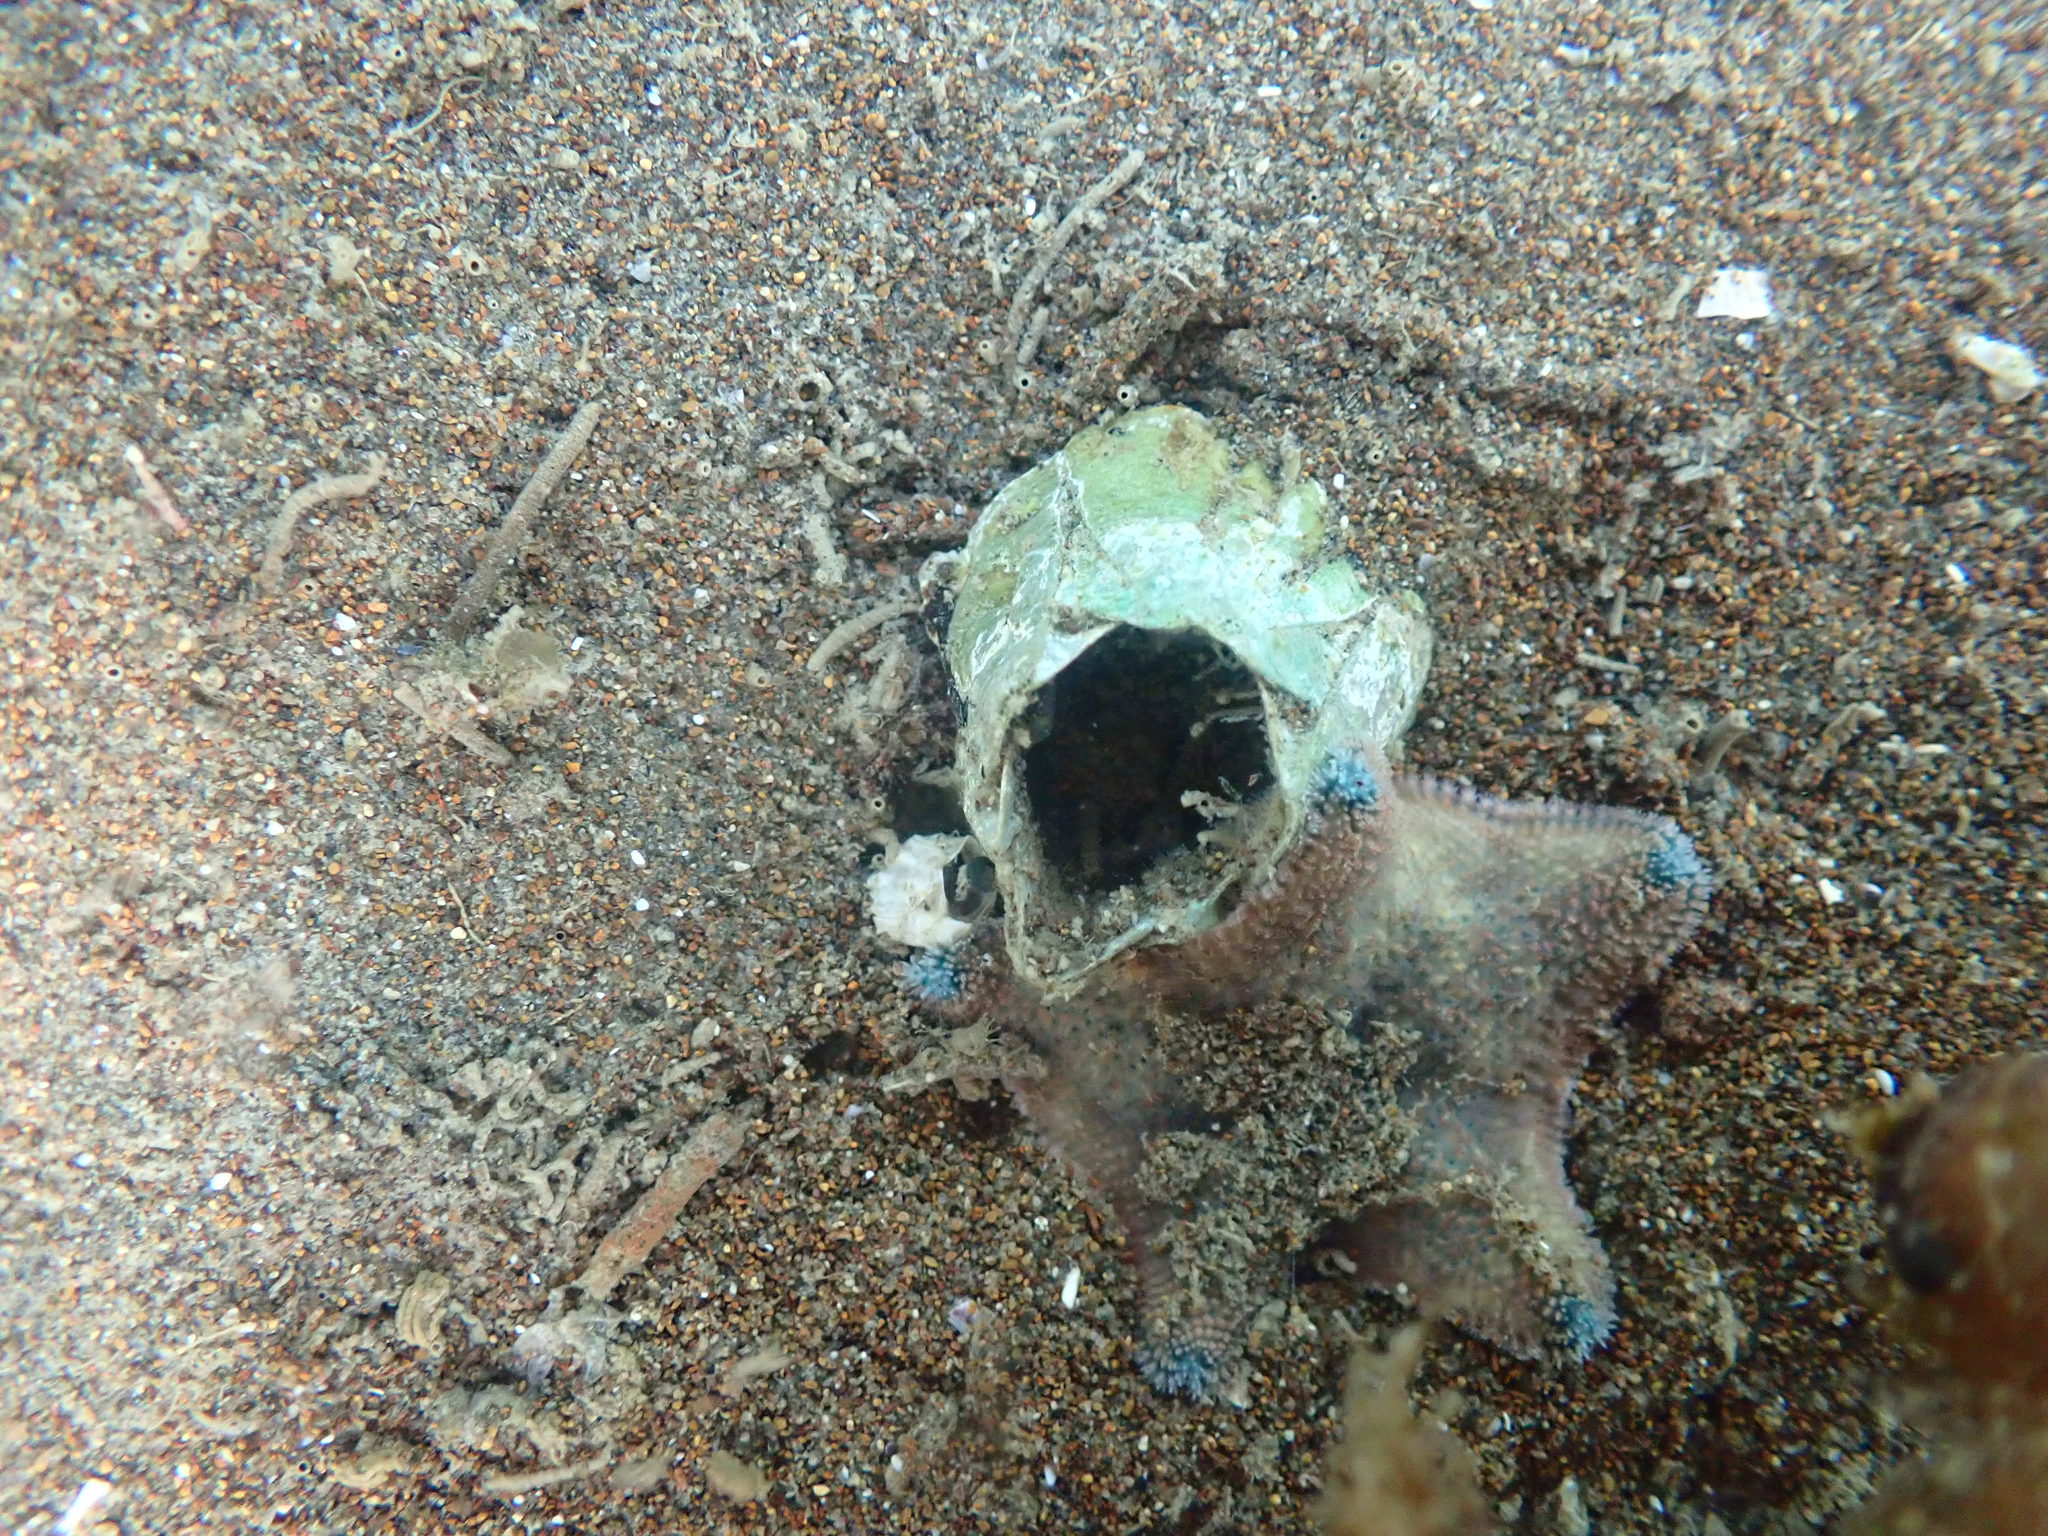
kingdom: Animalia
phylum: Arthropoda
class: Maxillopoda
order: Sessilia
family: Balanidae
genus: Notomegabalanus
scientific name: Notomegabalanus decorus
